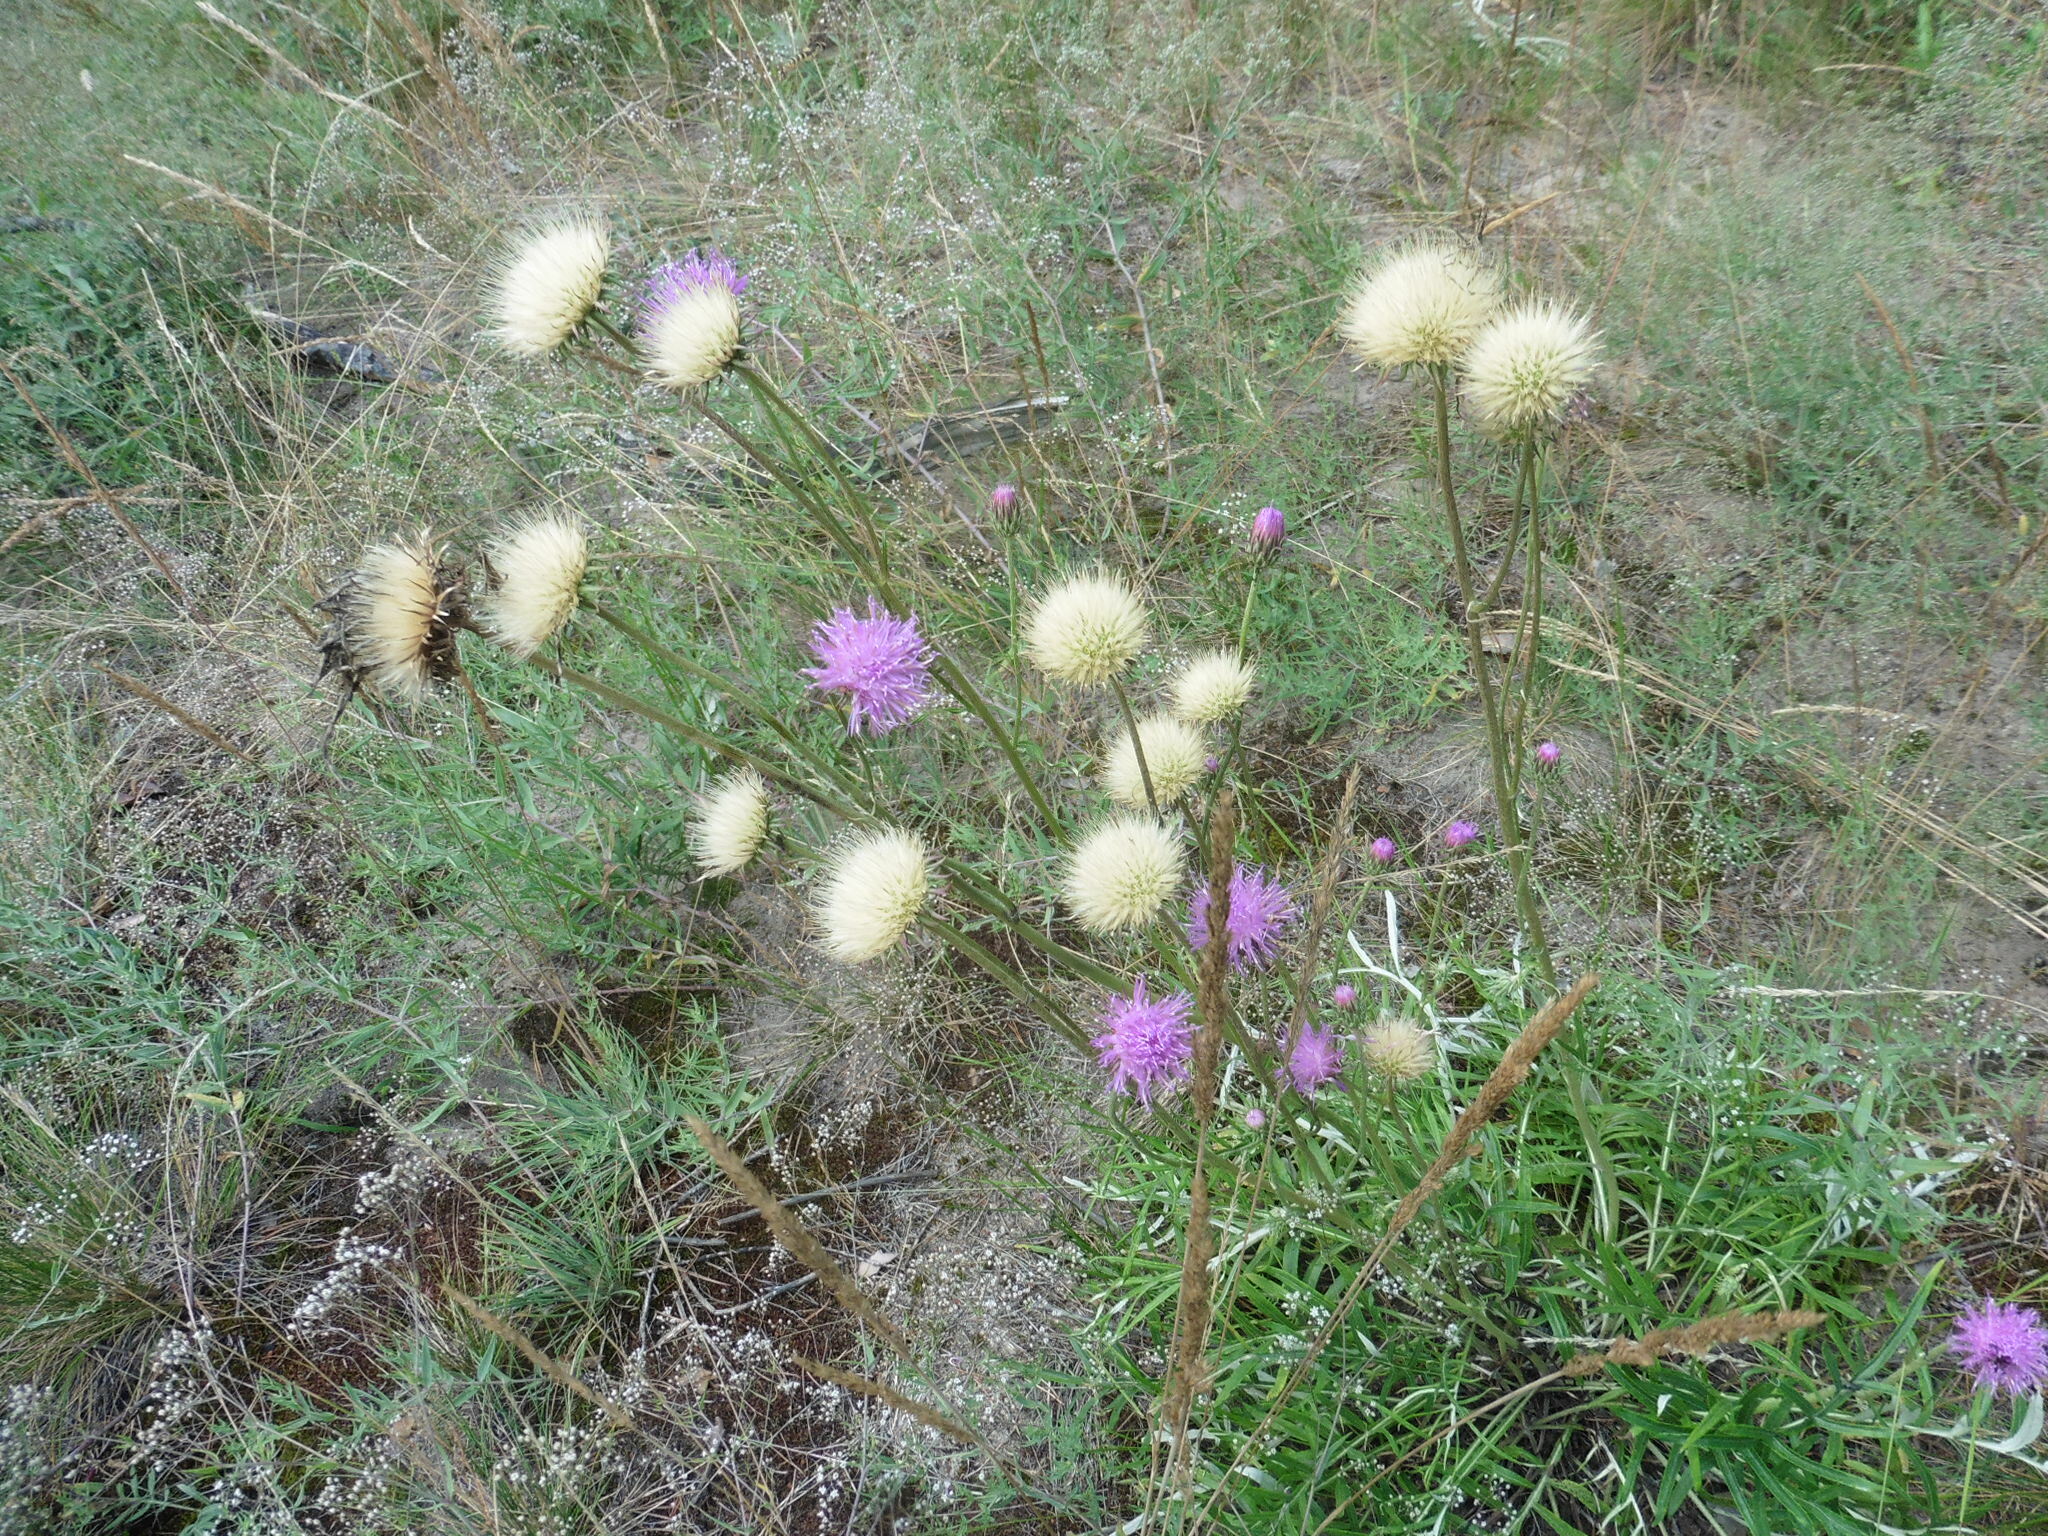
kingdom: Plantae
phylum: Tracheophyta
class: Magnoliopsida
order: Asterales
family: Asteraceae
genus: Jurinea
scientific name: Jurinea cyanoides
